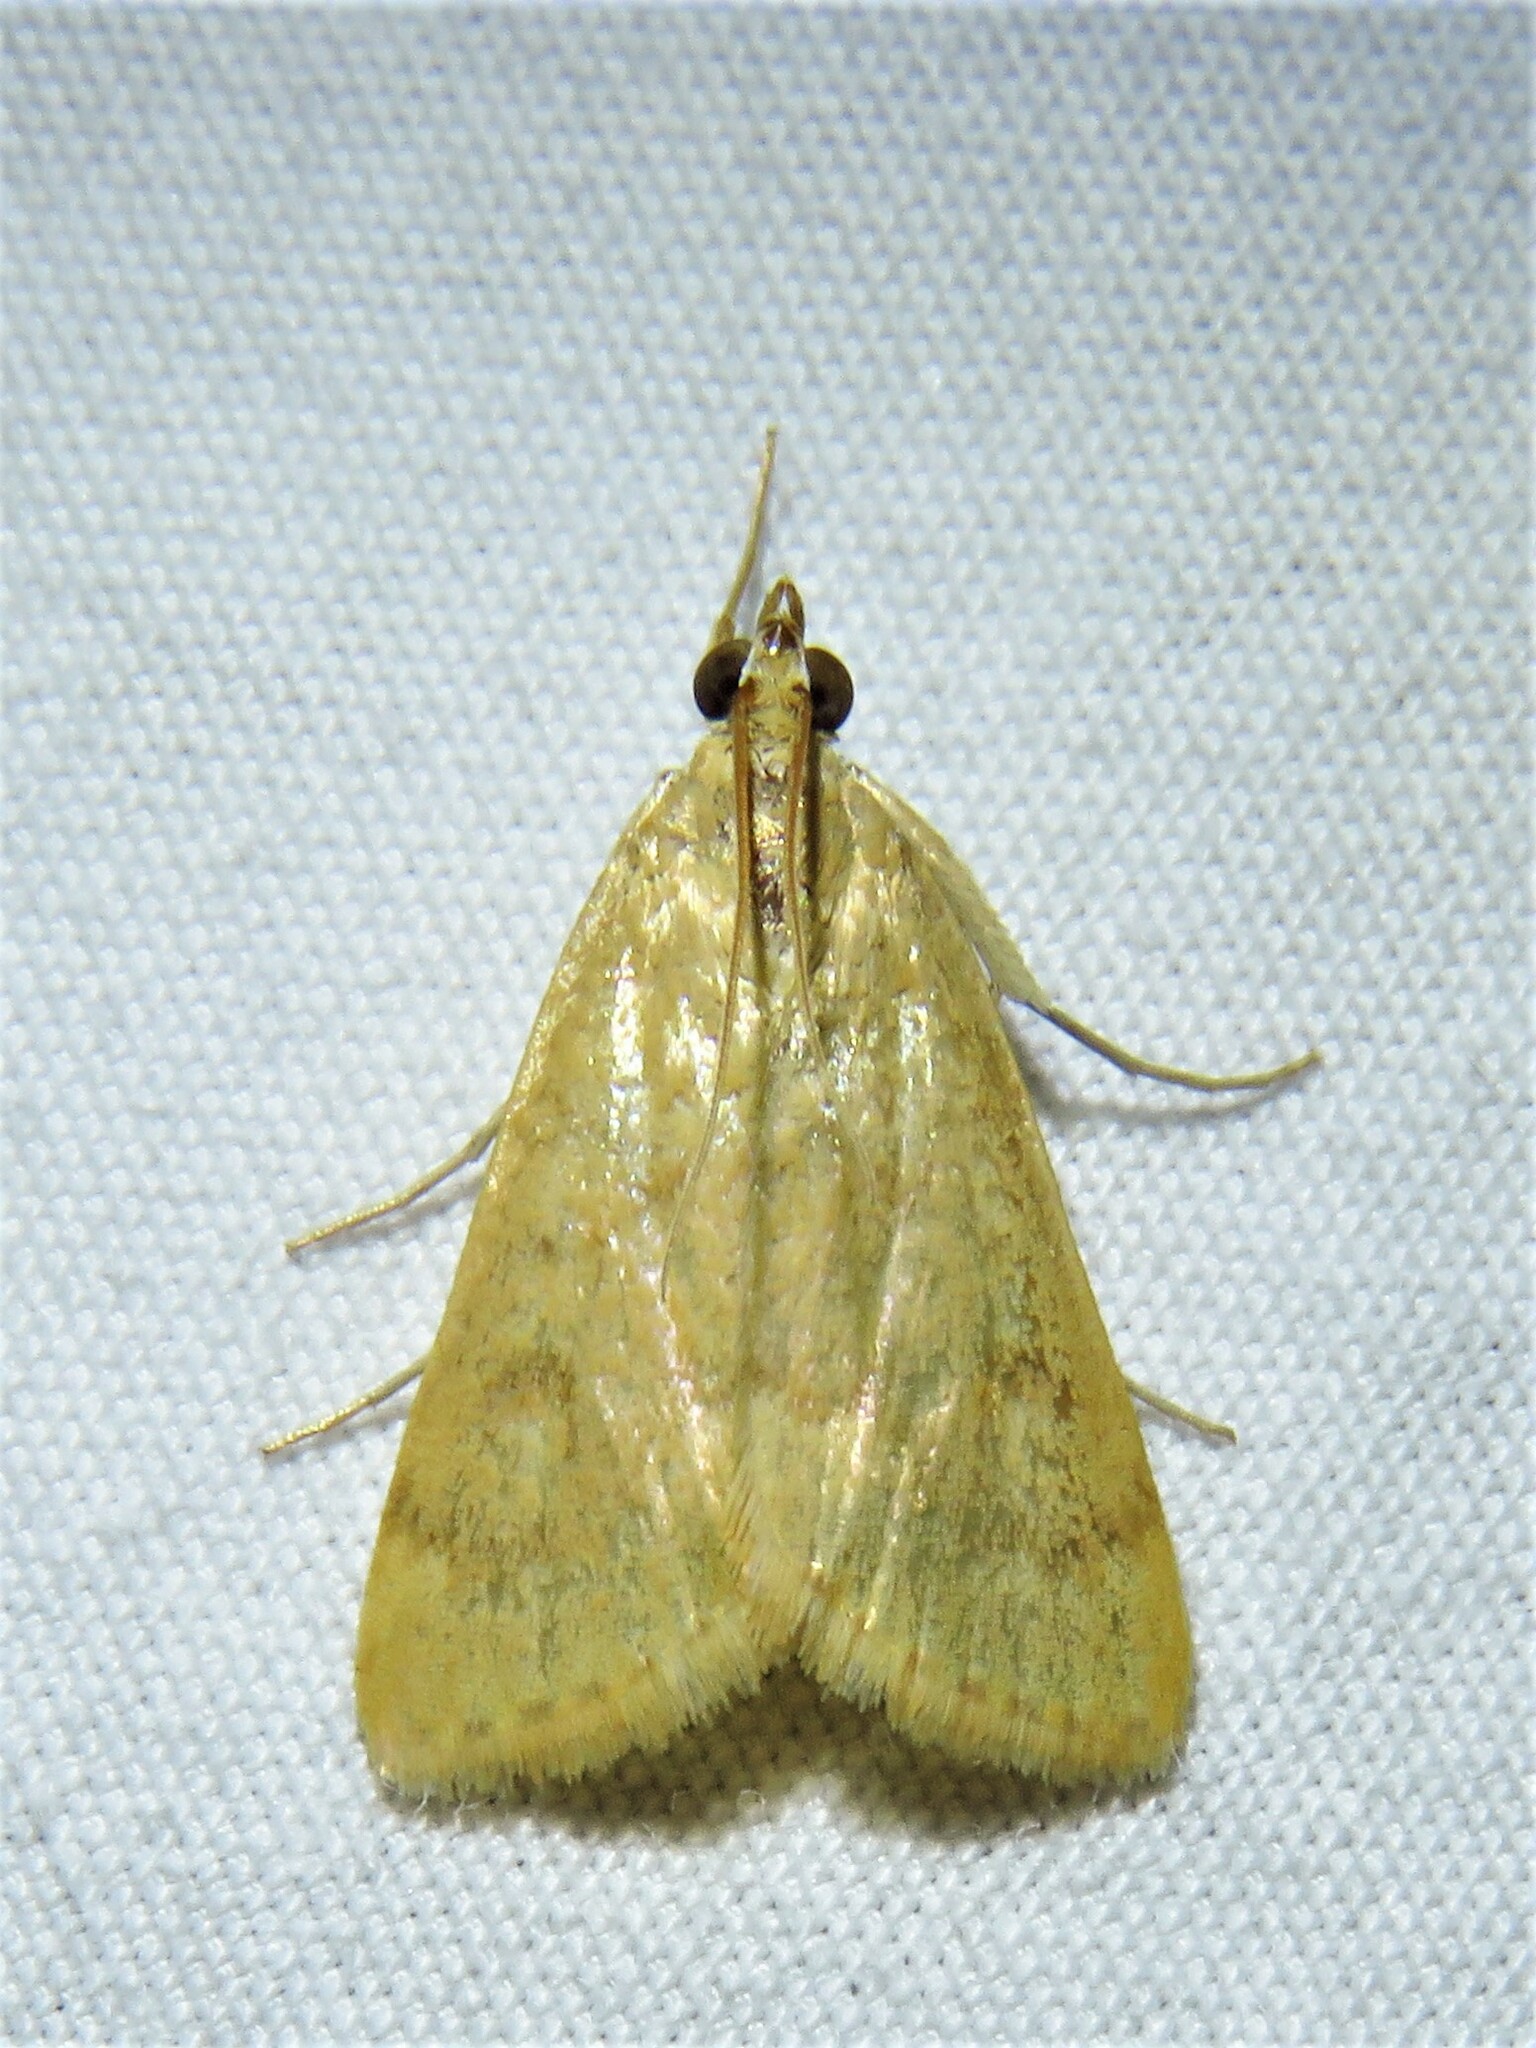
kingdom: Animalia
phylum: Arthropoda
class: Insecta
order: Lepidoptera
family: Crambidae
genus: Achyra
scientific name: Achyra rantalis
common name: Garden webworm
